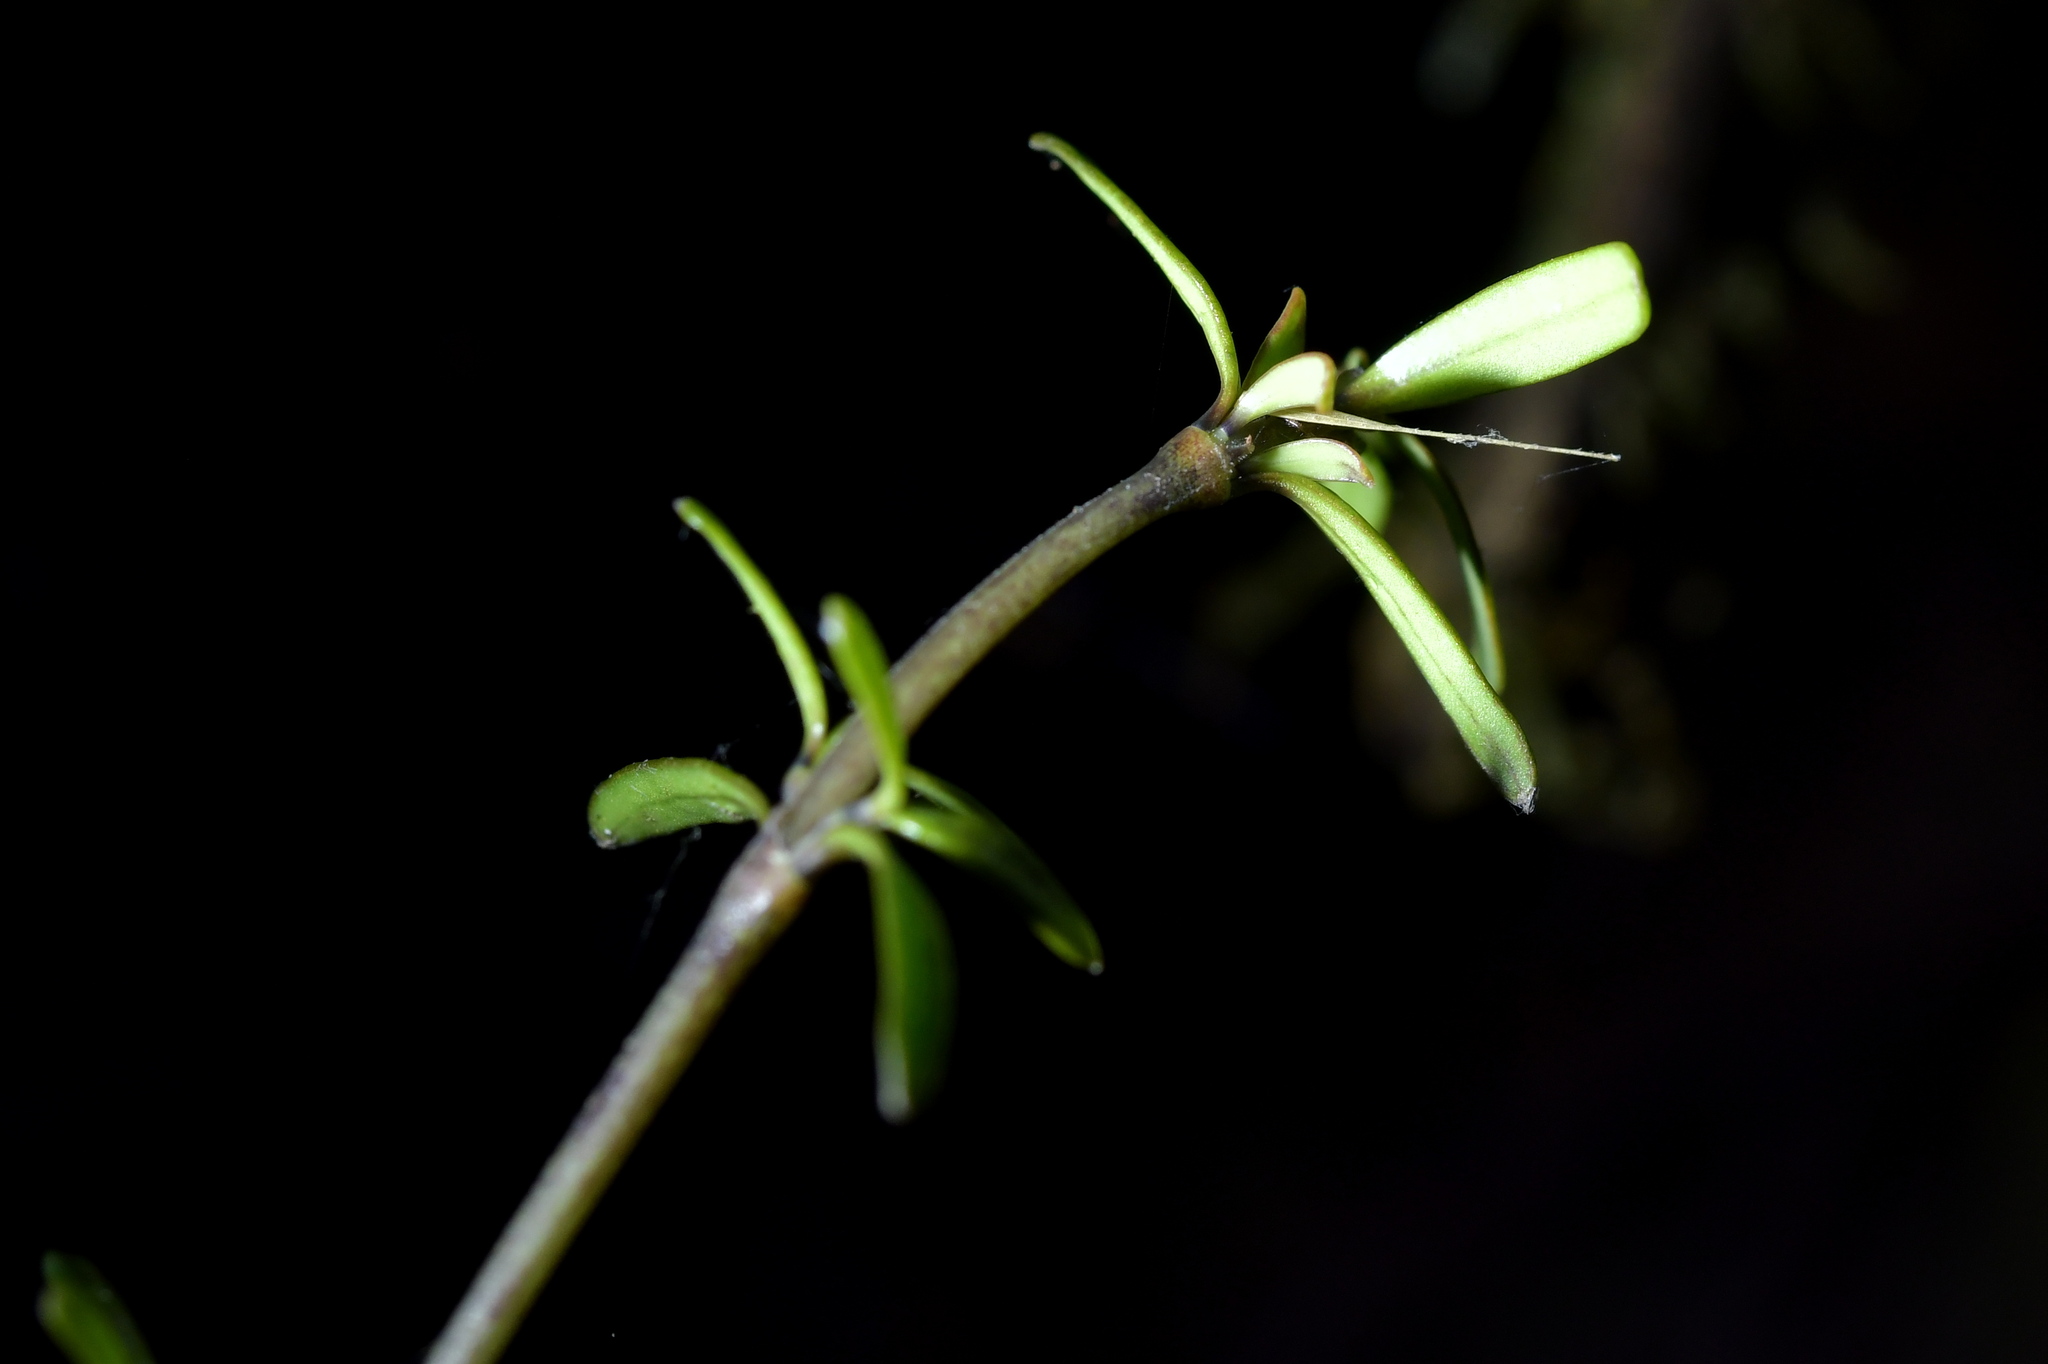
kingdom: Plantae
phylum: Tracheophyta
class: Magnoliopsida
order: Gentianales
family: Rubiaceae
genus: Coprosma
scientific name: Coprosma microcarpa
